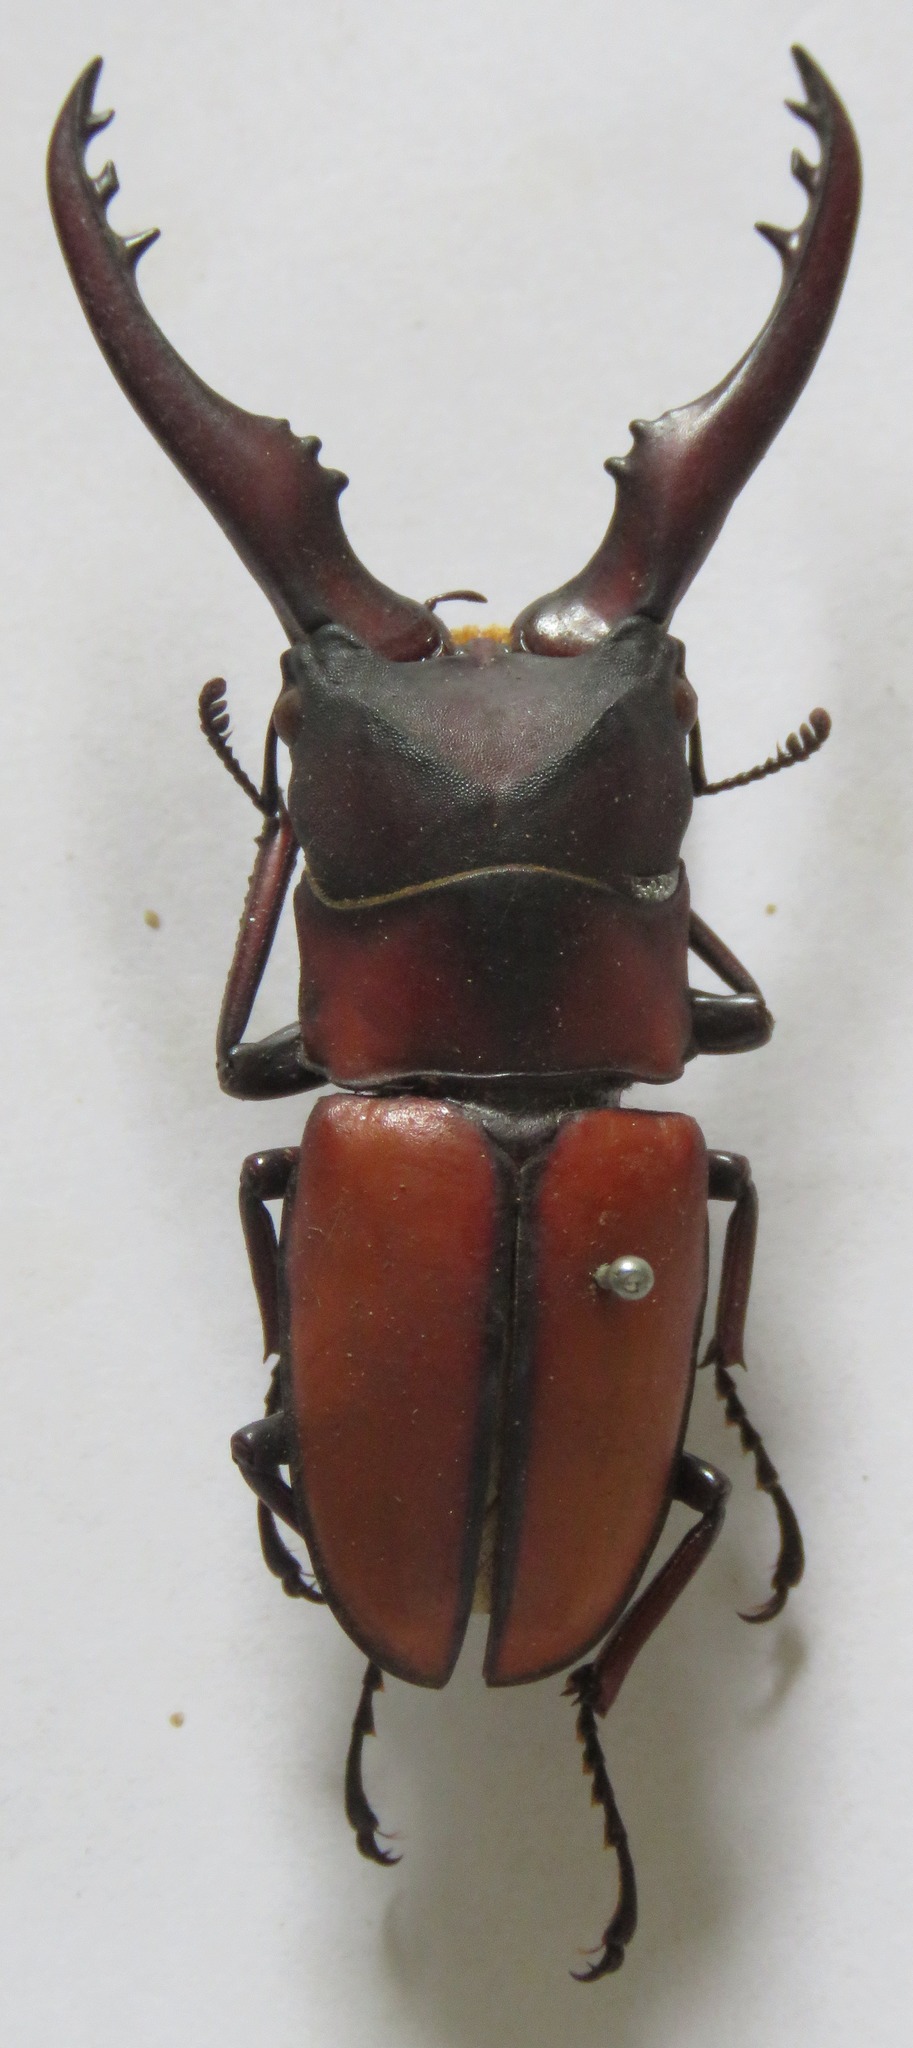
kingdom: Animalia
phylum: Arthropoda
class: Insecta
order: Coleoptera
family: Lucanidae
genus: Prosopocoilus
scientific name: Prosopocoilus mohnikei
